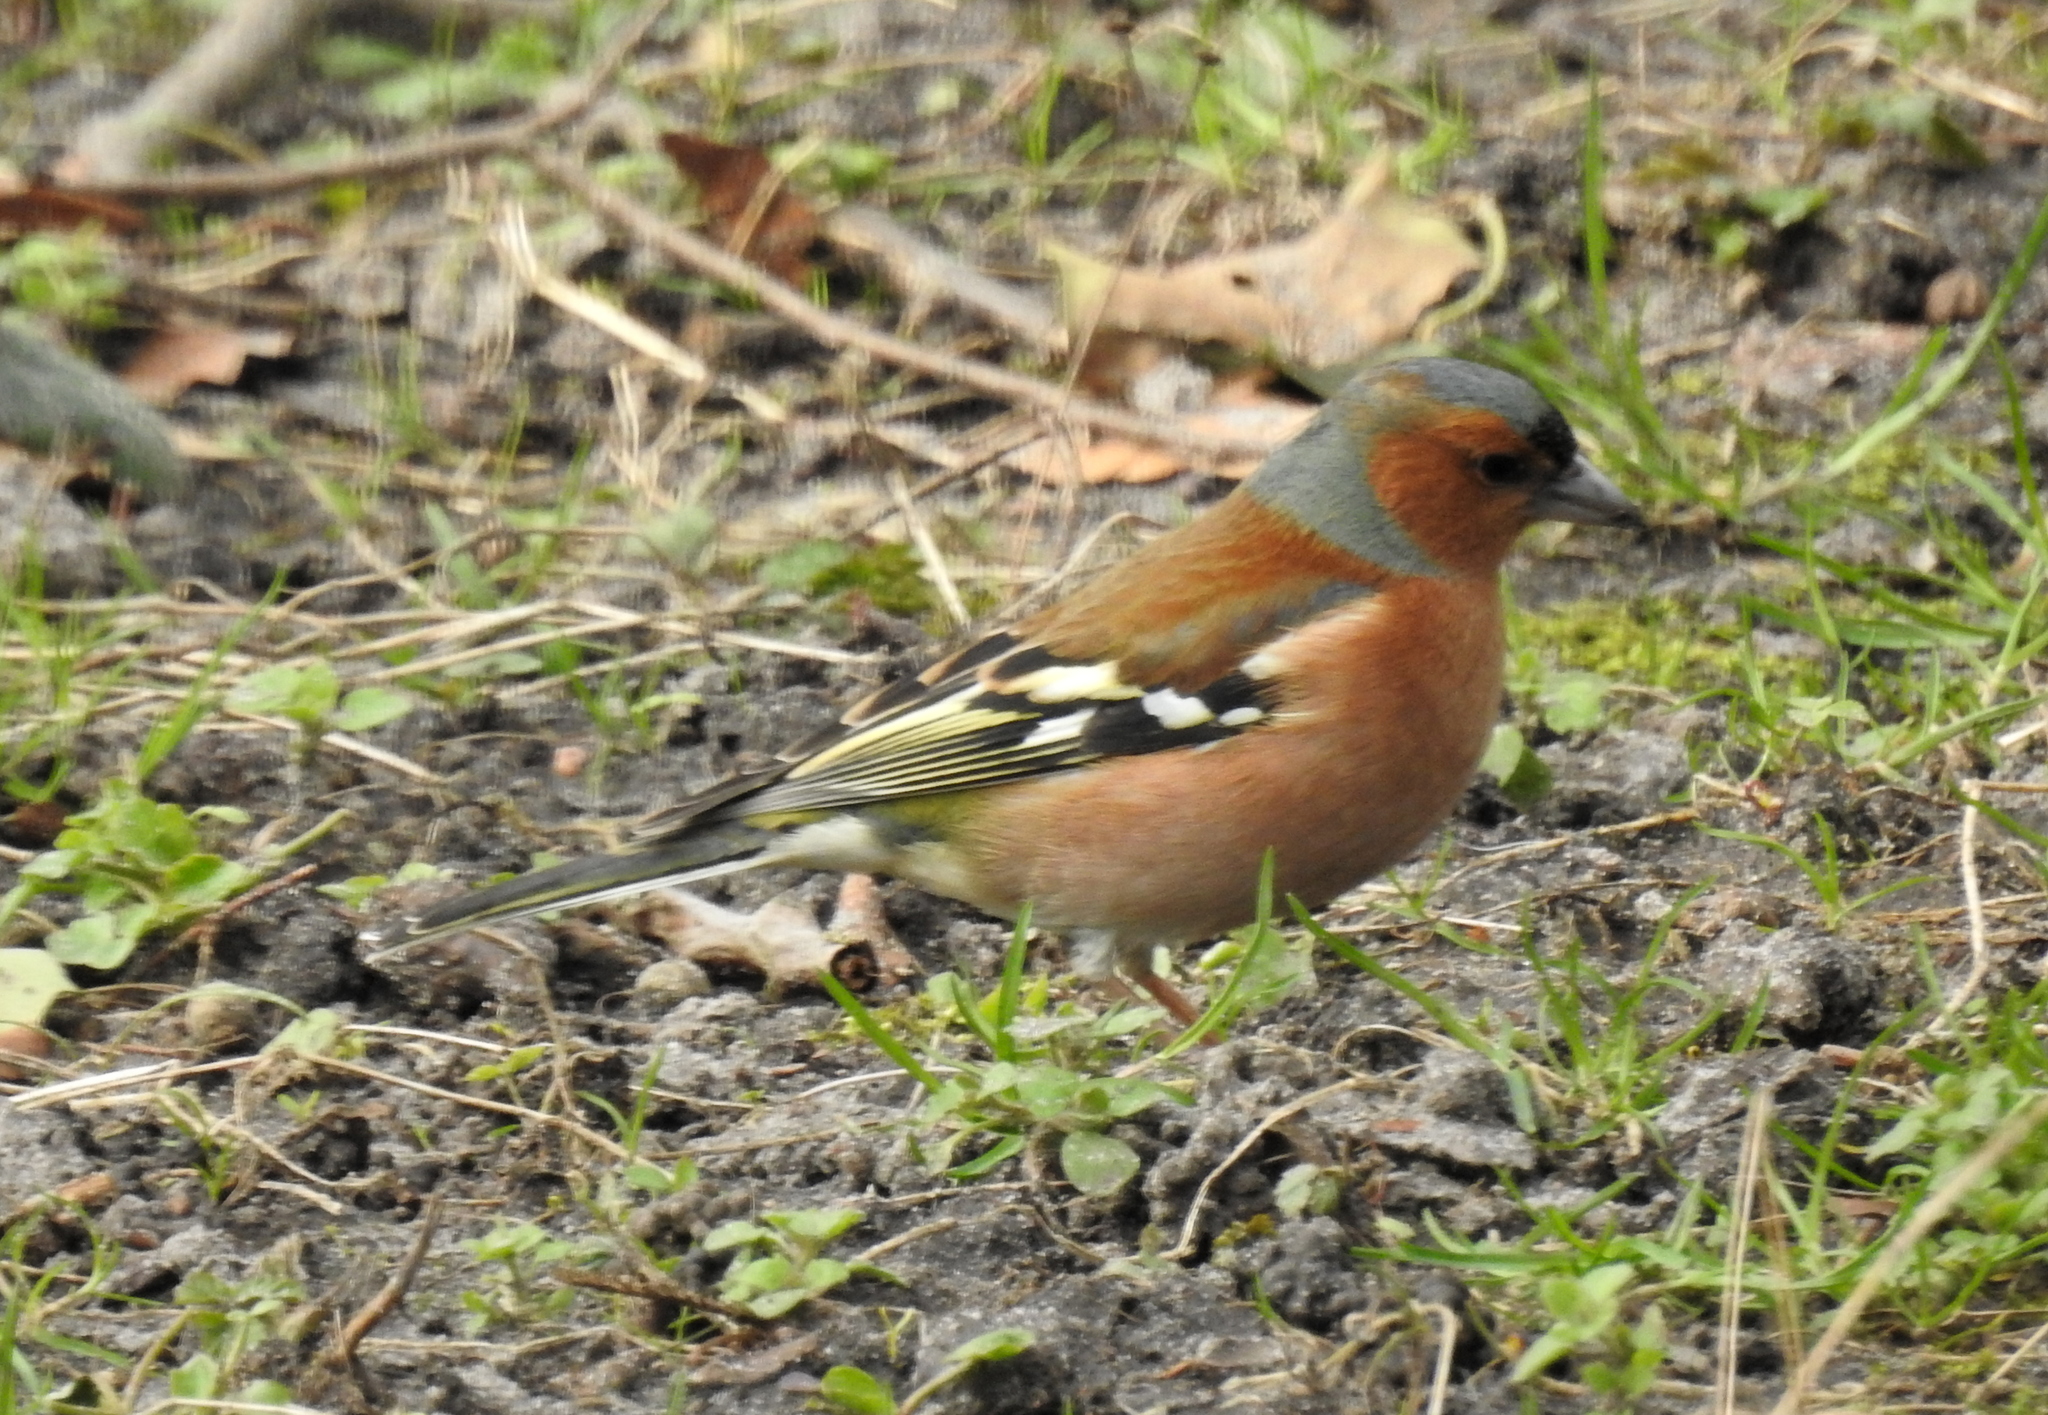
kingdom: Animalia
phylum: Chordata
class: Aves
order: Passeriformes
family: Fringillidae
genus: Fringilla
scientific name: Fringilla coelebs
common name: Common chaffinch
